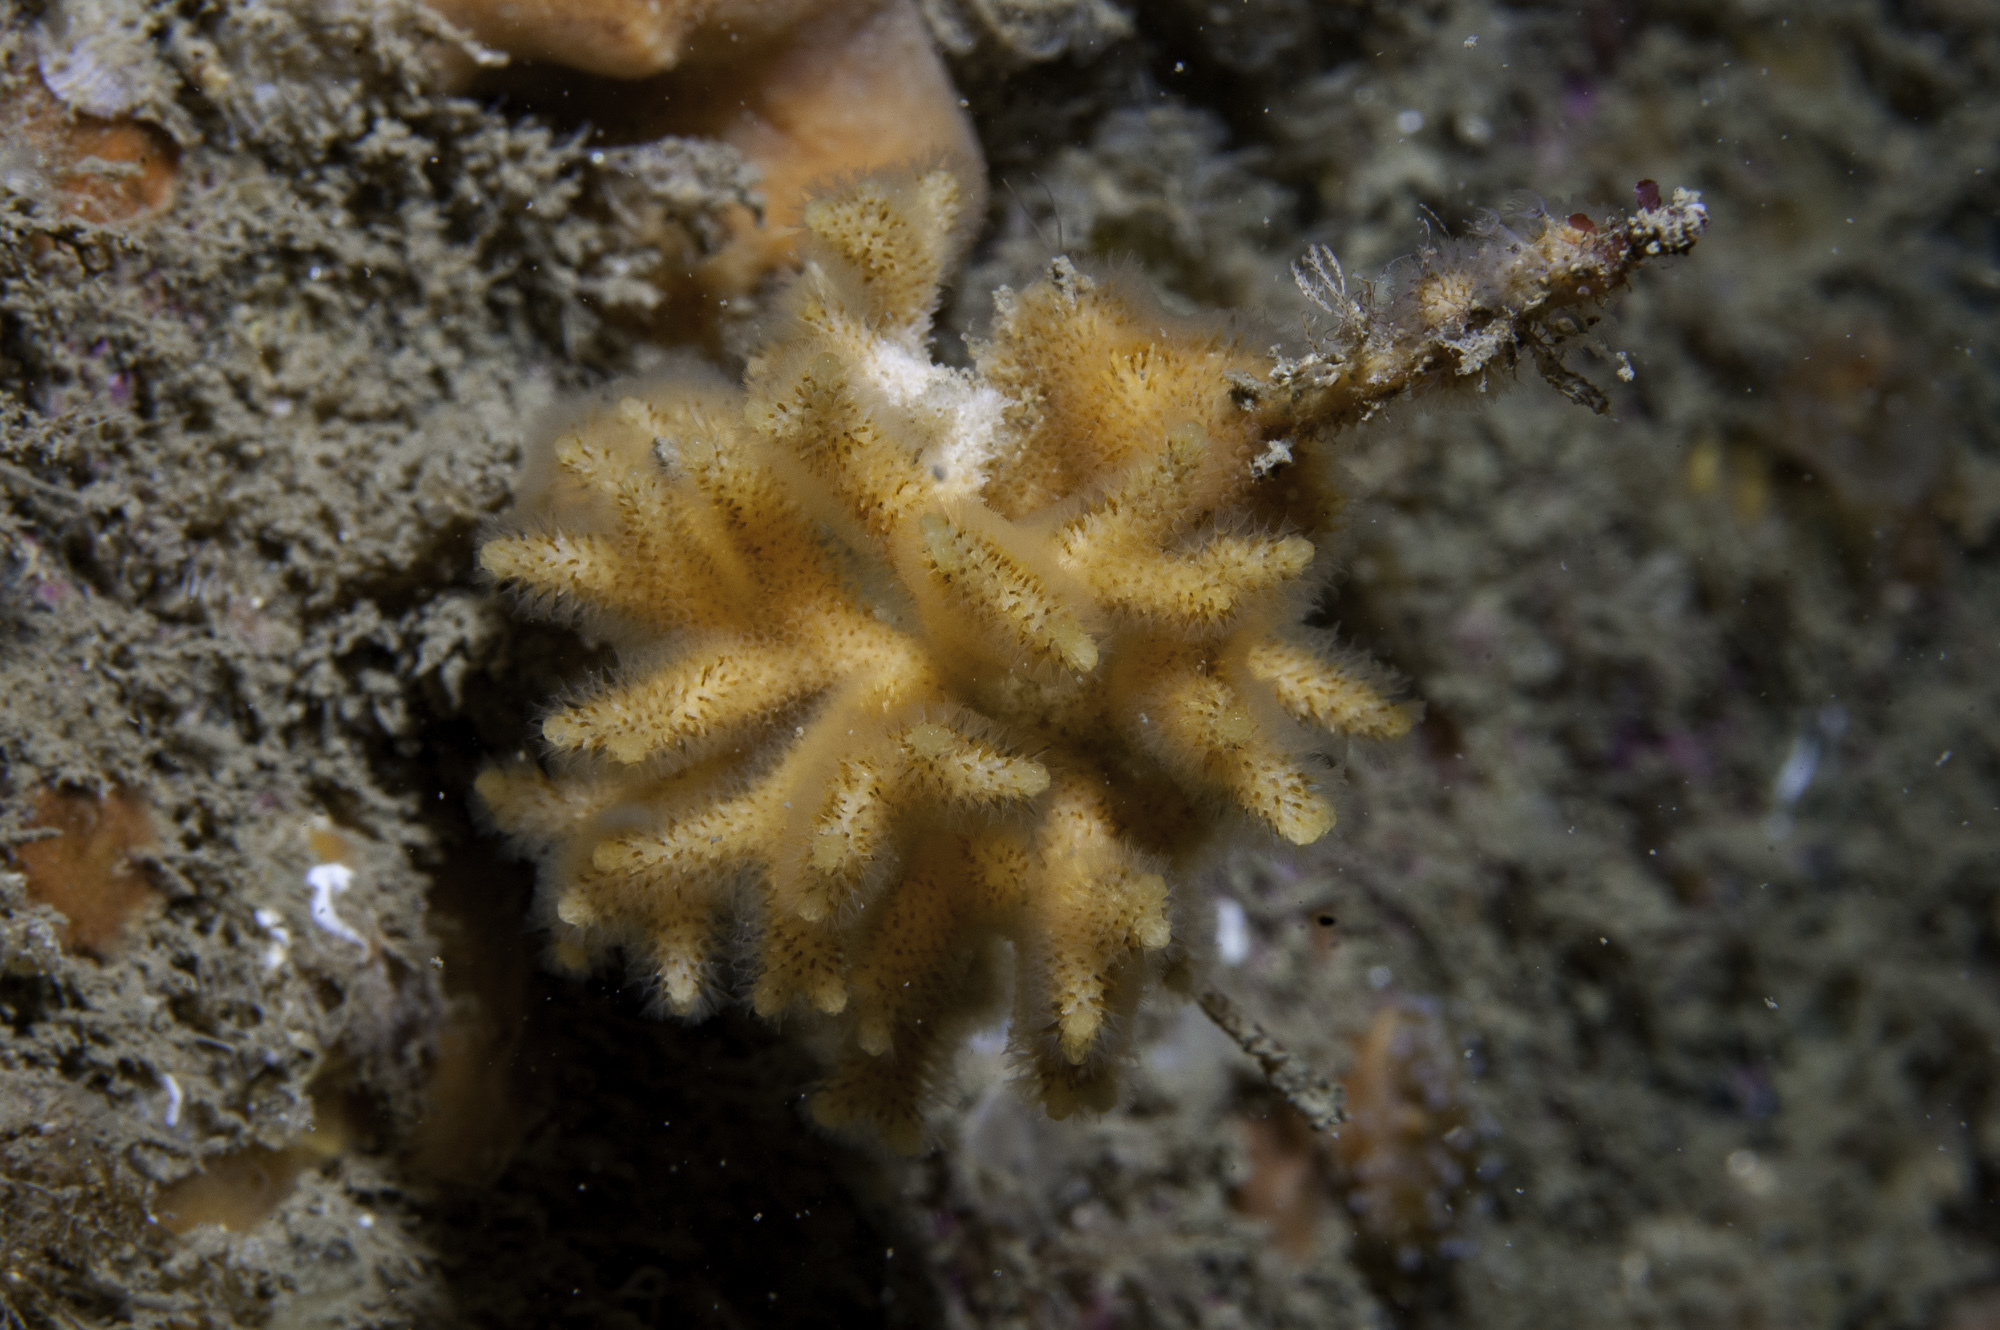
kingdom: Animalia
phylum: Bryozoa
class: Gymnolaemata
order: Cheilostomatida
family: Celleporidae
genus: Omalosecosa
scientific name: Omalosecosa ramulosa
